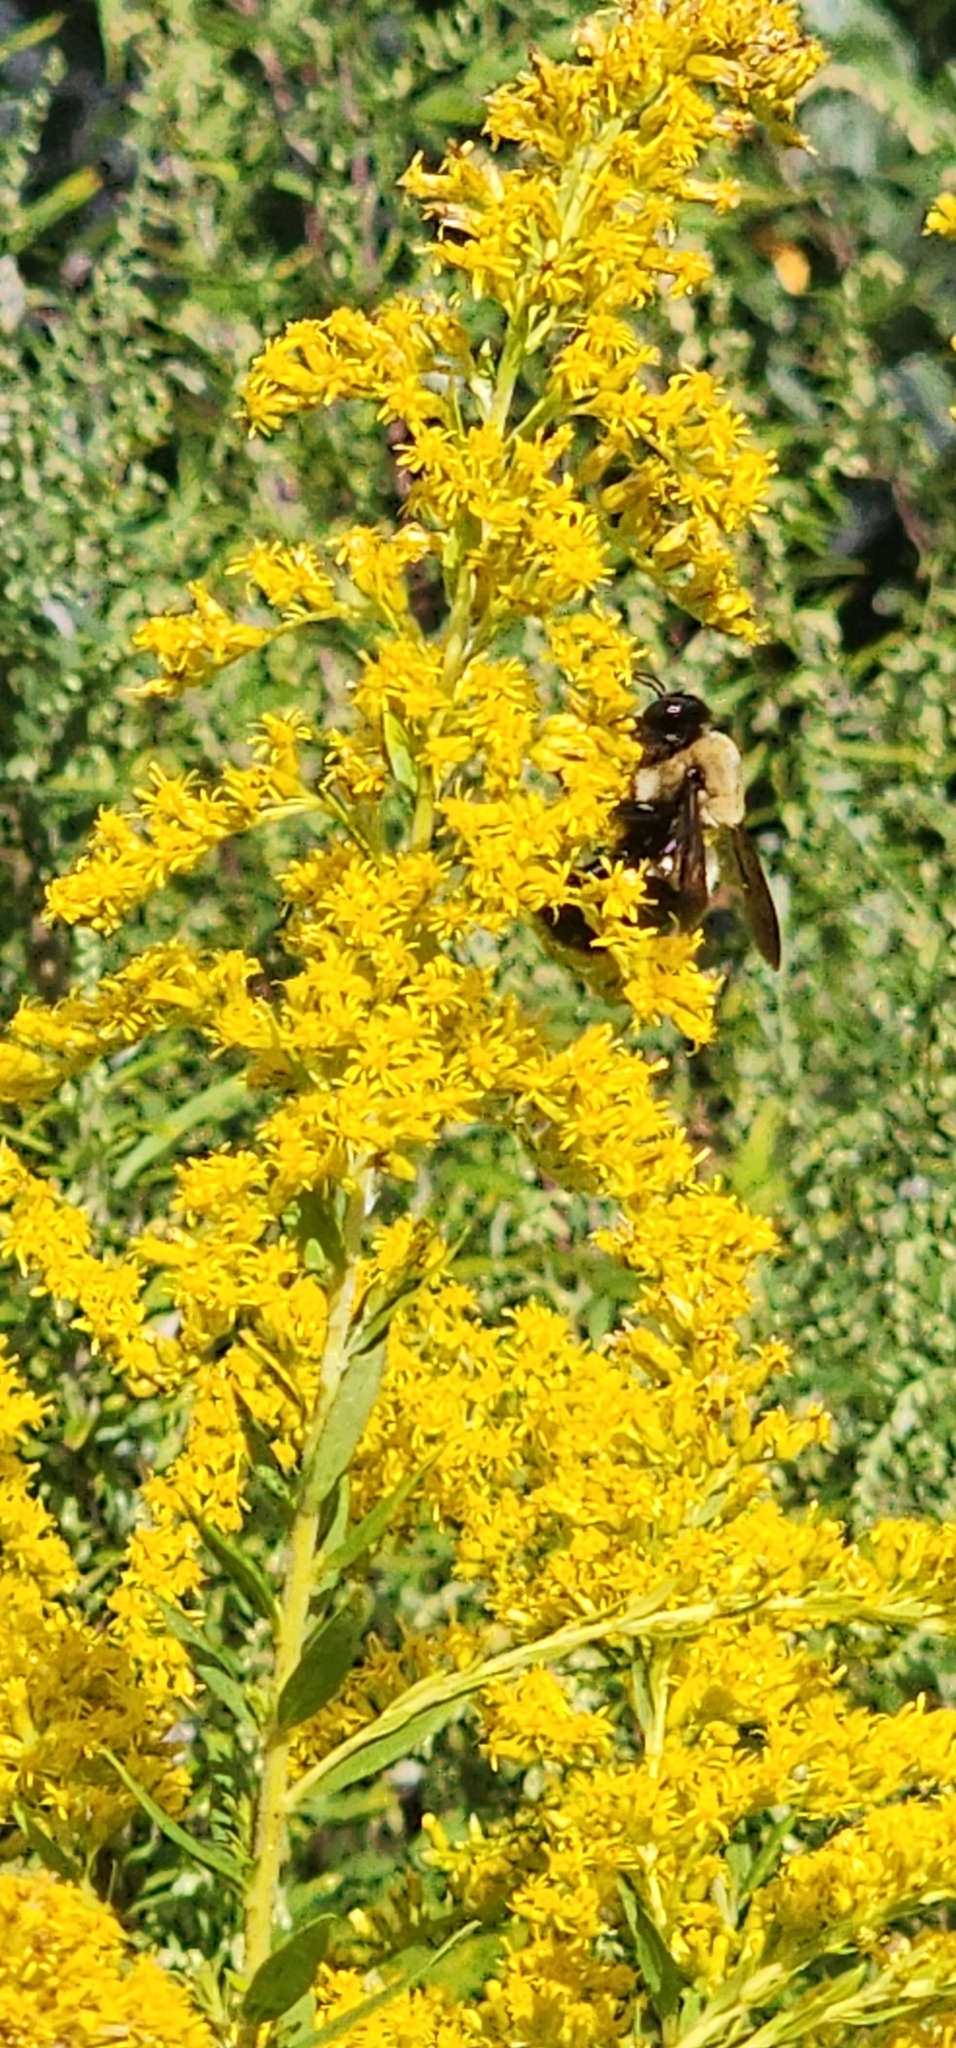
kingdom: Animalia
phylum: Arthropoda
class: Insecta
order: Hymenoptera
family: Apidae
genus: Xylocopa
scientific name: Xylocopa virginica
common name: Carpenter bee
